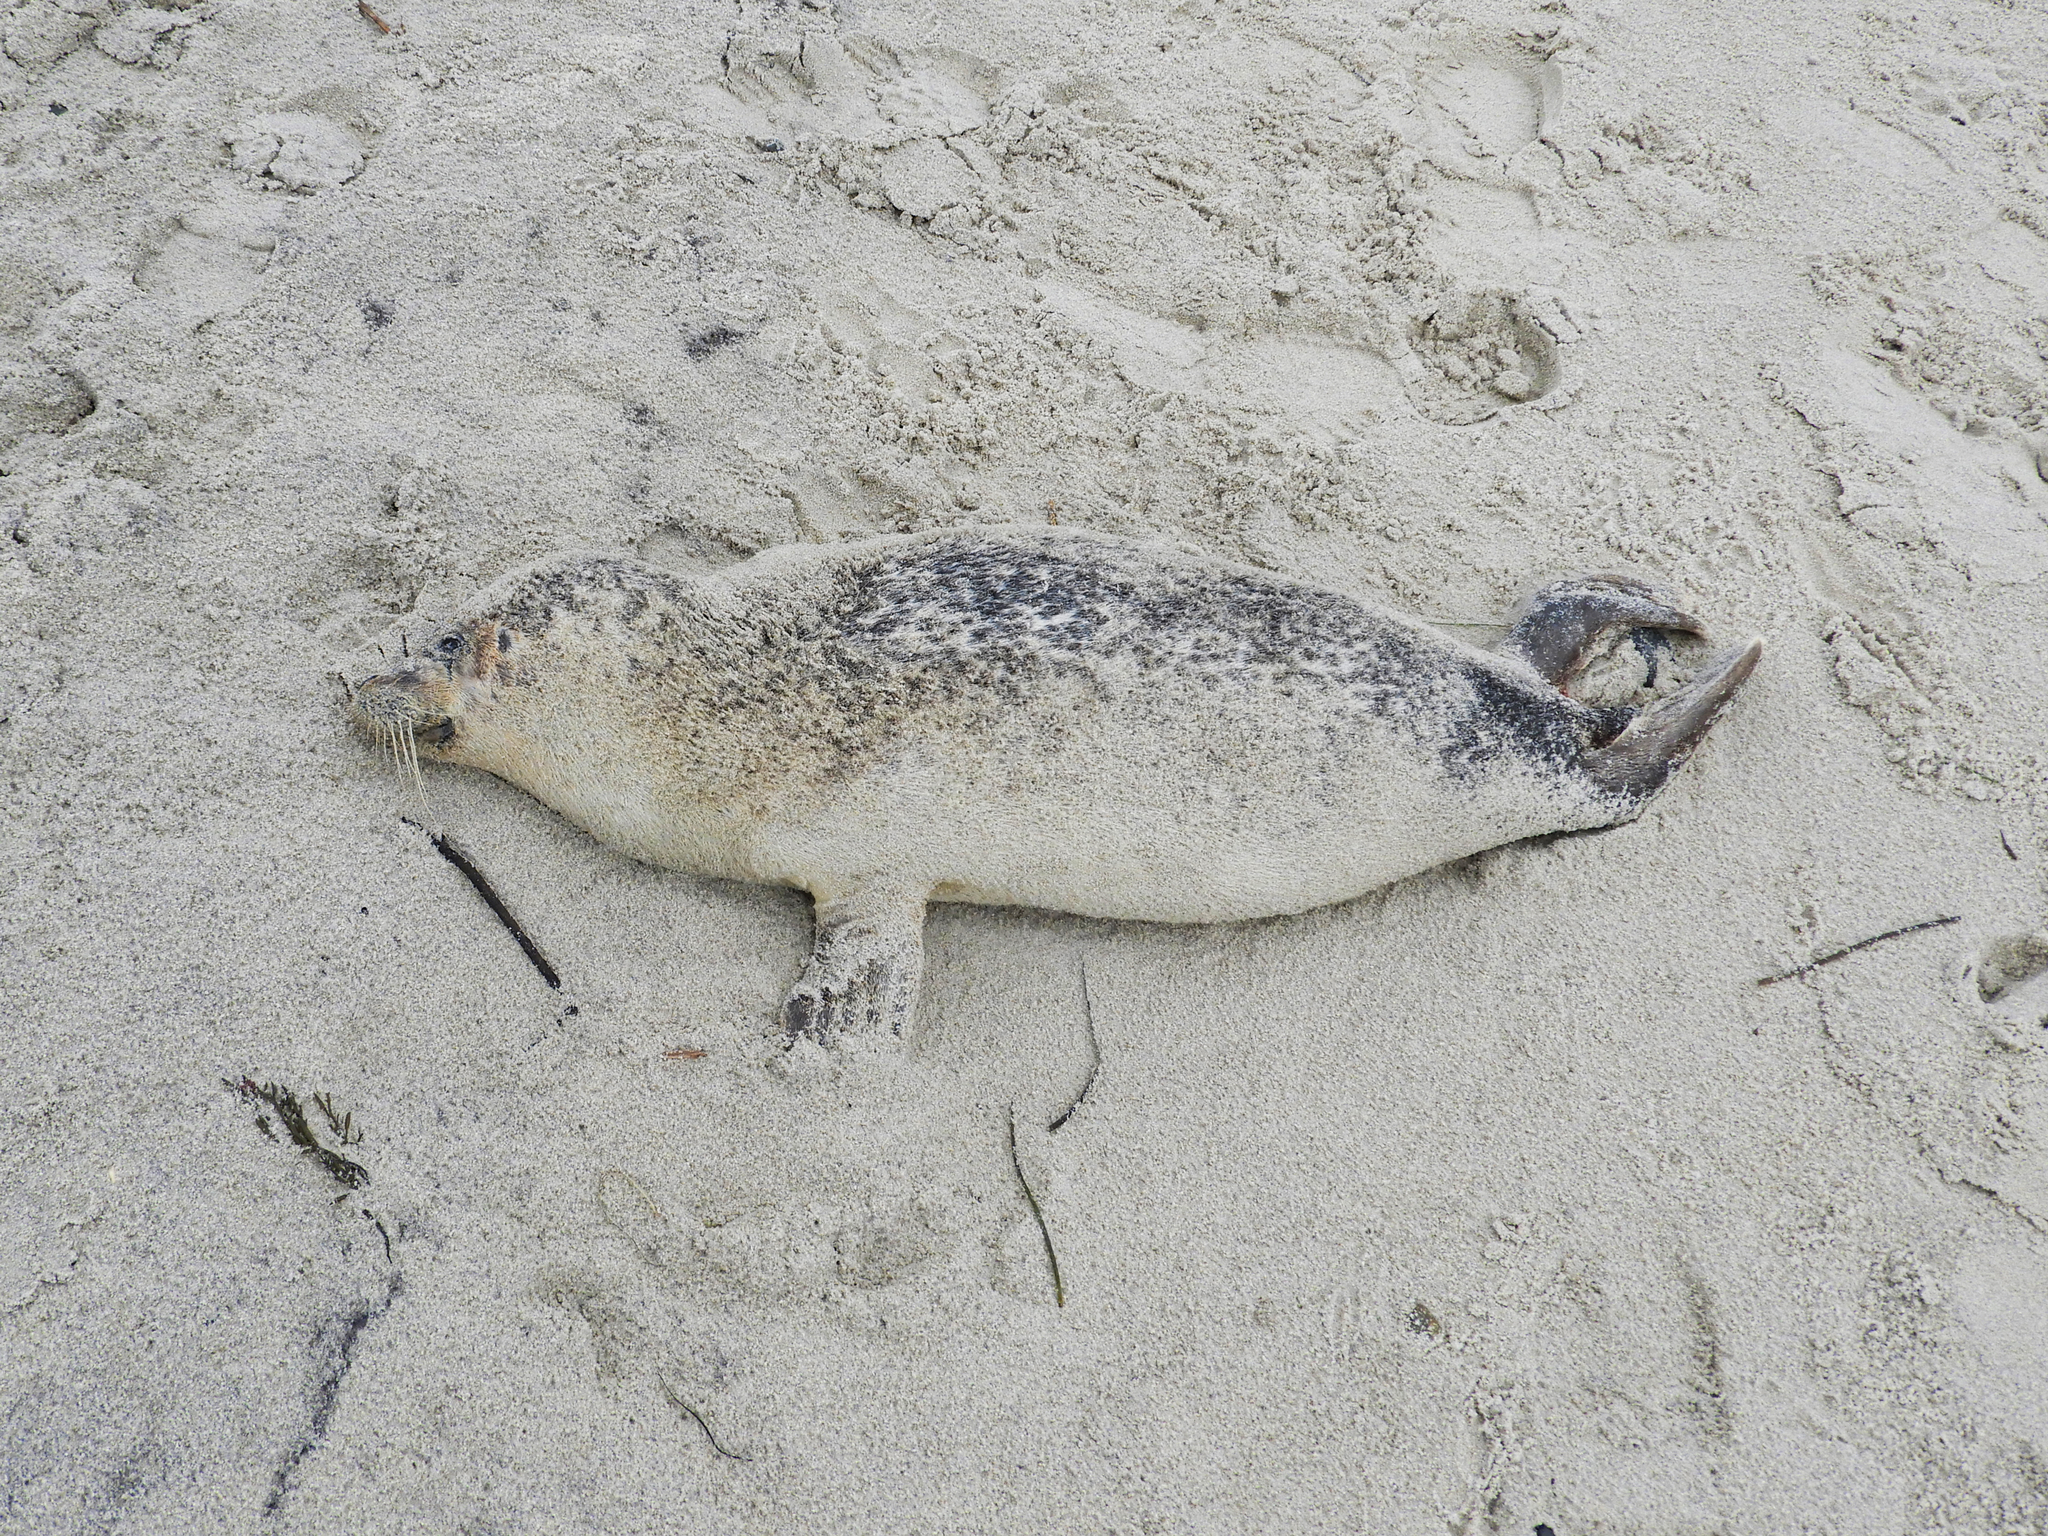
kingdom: Animalia
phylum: Chordata
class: Mammalia
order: Carnivora
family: Phocidae
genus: Phoca
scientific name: Phoca vitulina
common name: Harbor seal
